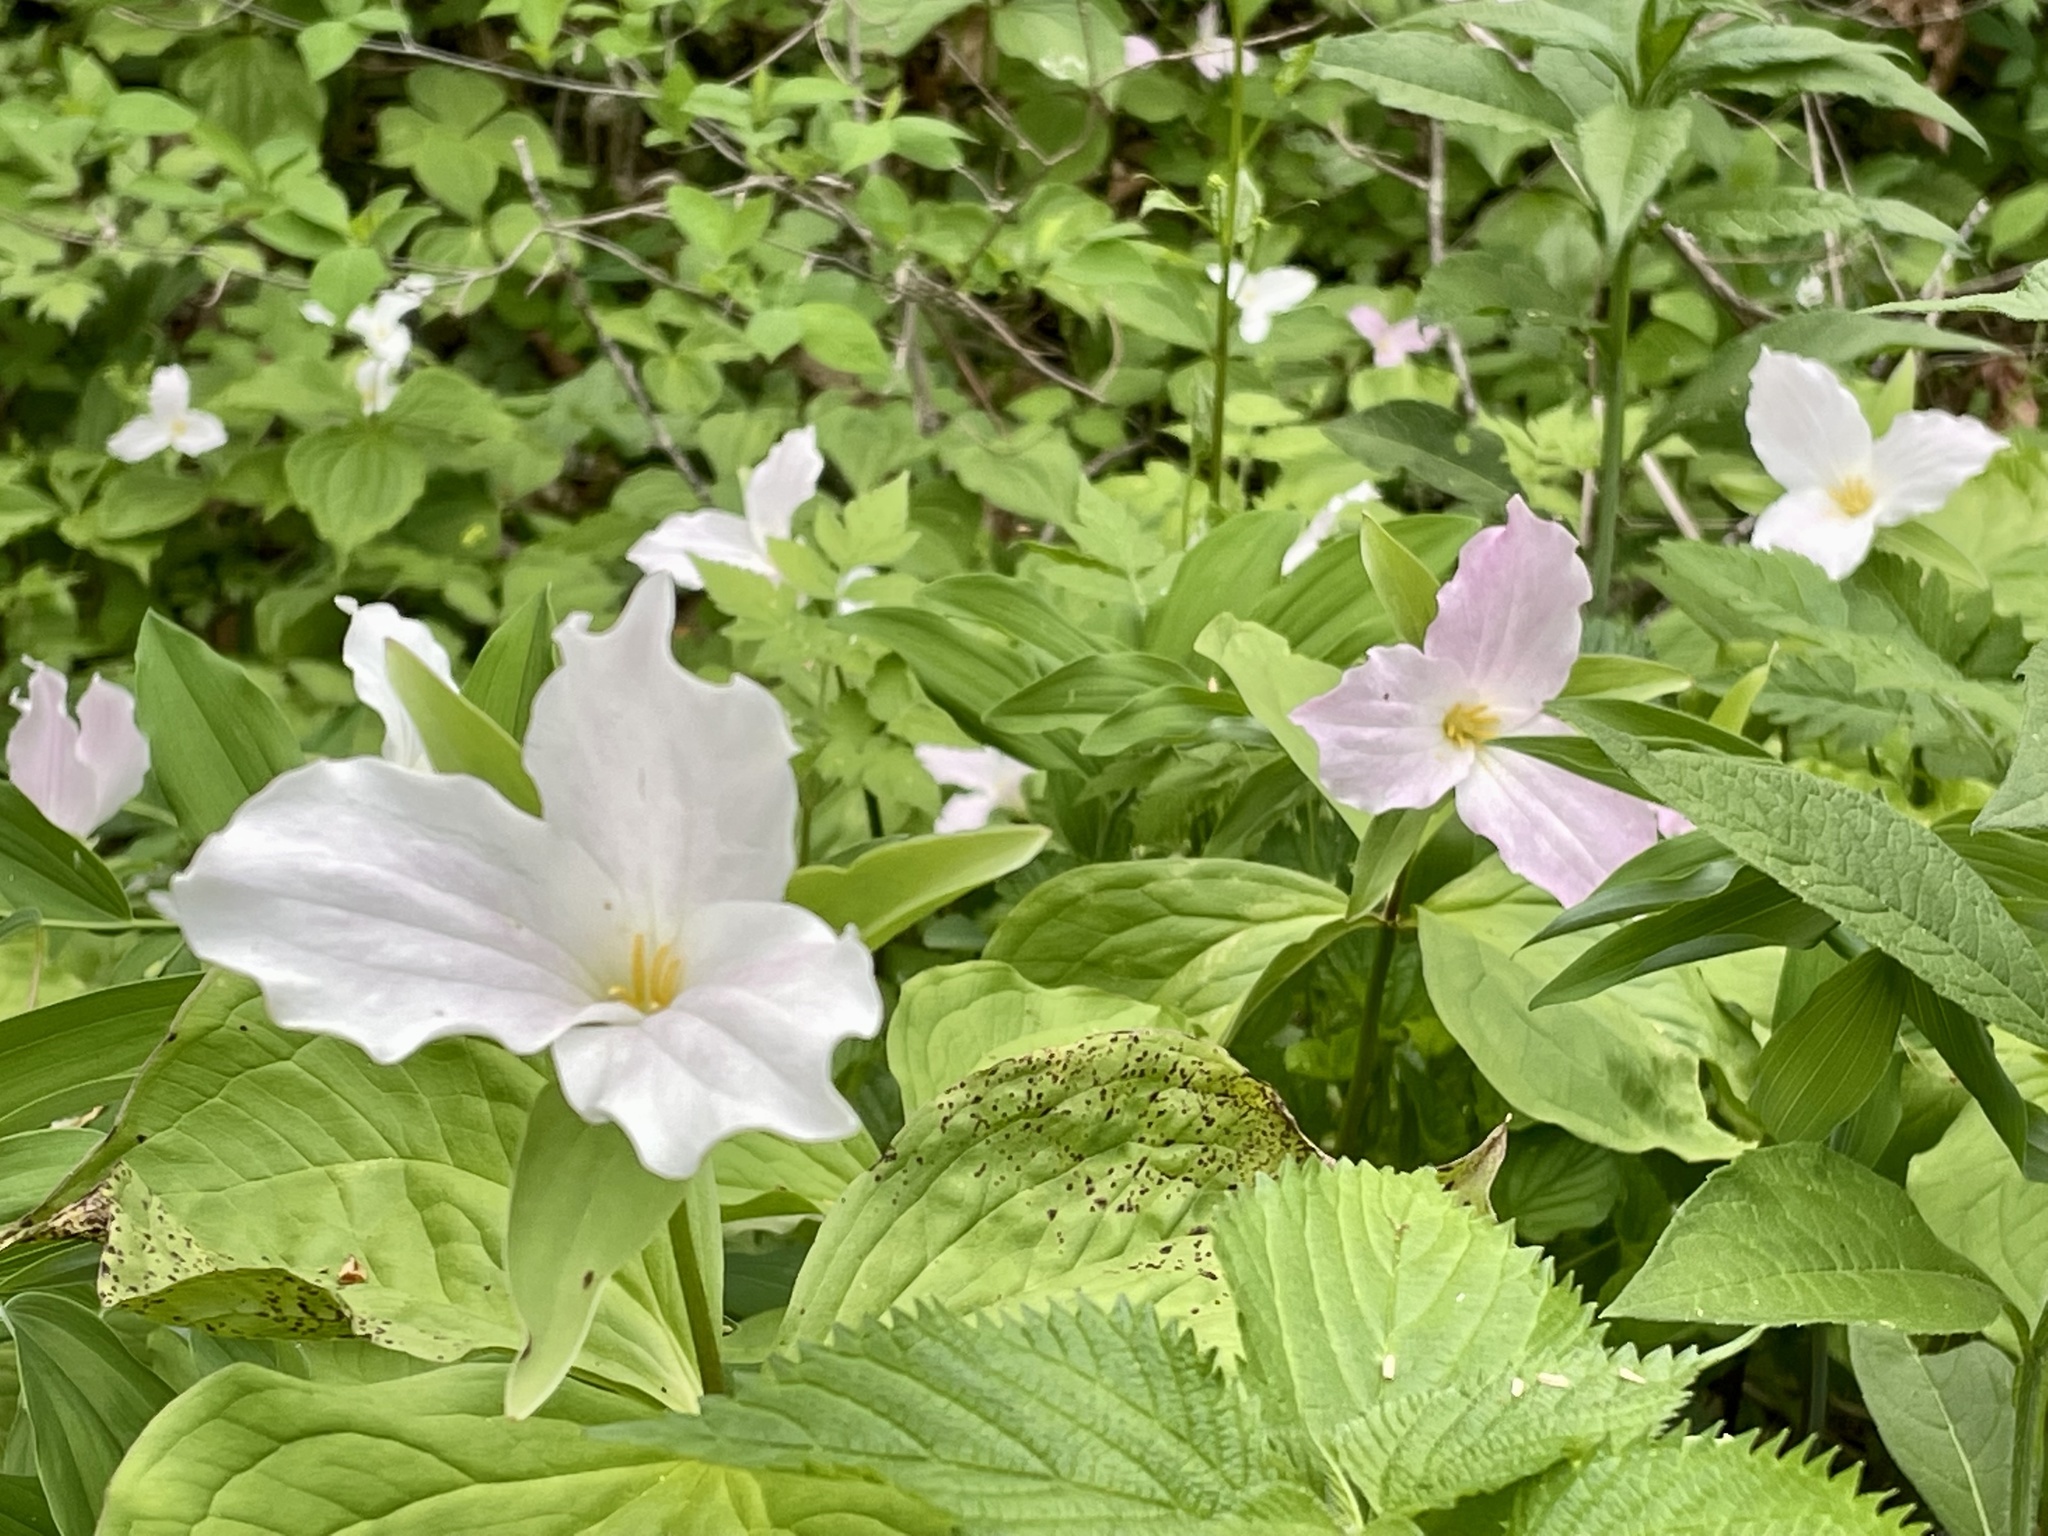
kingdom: Plantae
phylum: Tracheophyta
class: Liliopsida
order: Liliales
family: Melanthiaceae
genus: Trillium
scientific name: Trillium grandiflorum
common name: Great white trillium
